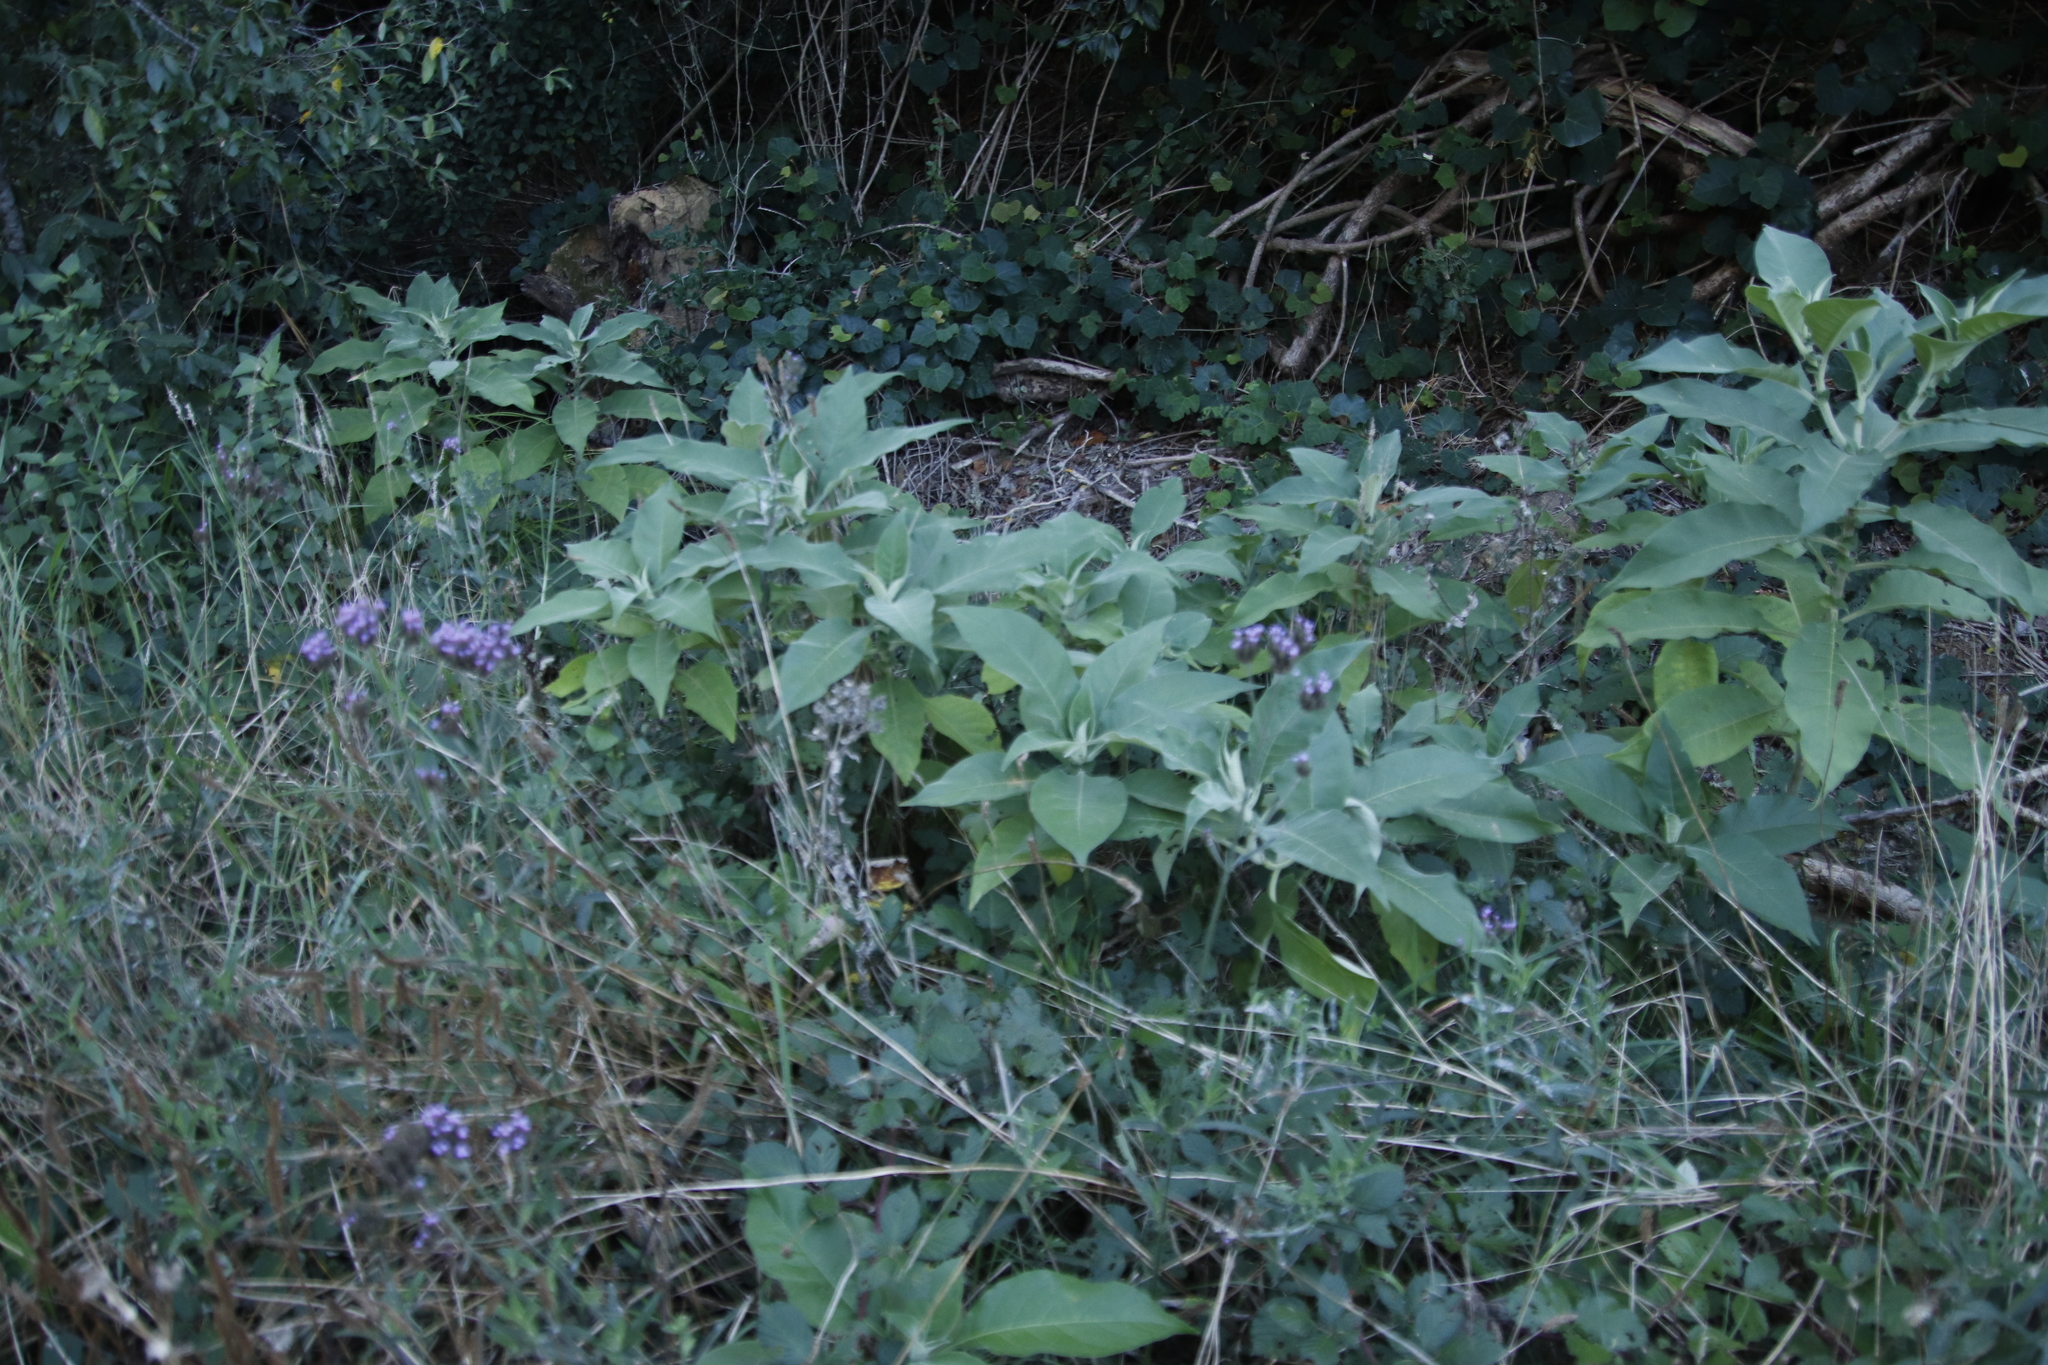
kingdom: Plantae
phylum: Tracheophyta
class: Magnoliopsida
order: Solanales
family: Solanaceae
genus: Solanum
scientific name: Solanum mauritianum
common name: Earleaf nightshade
